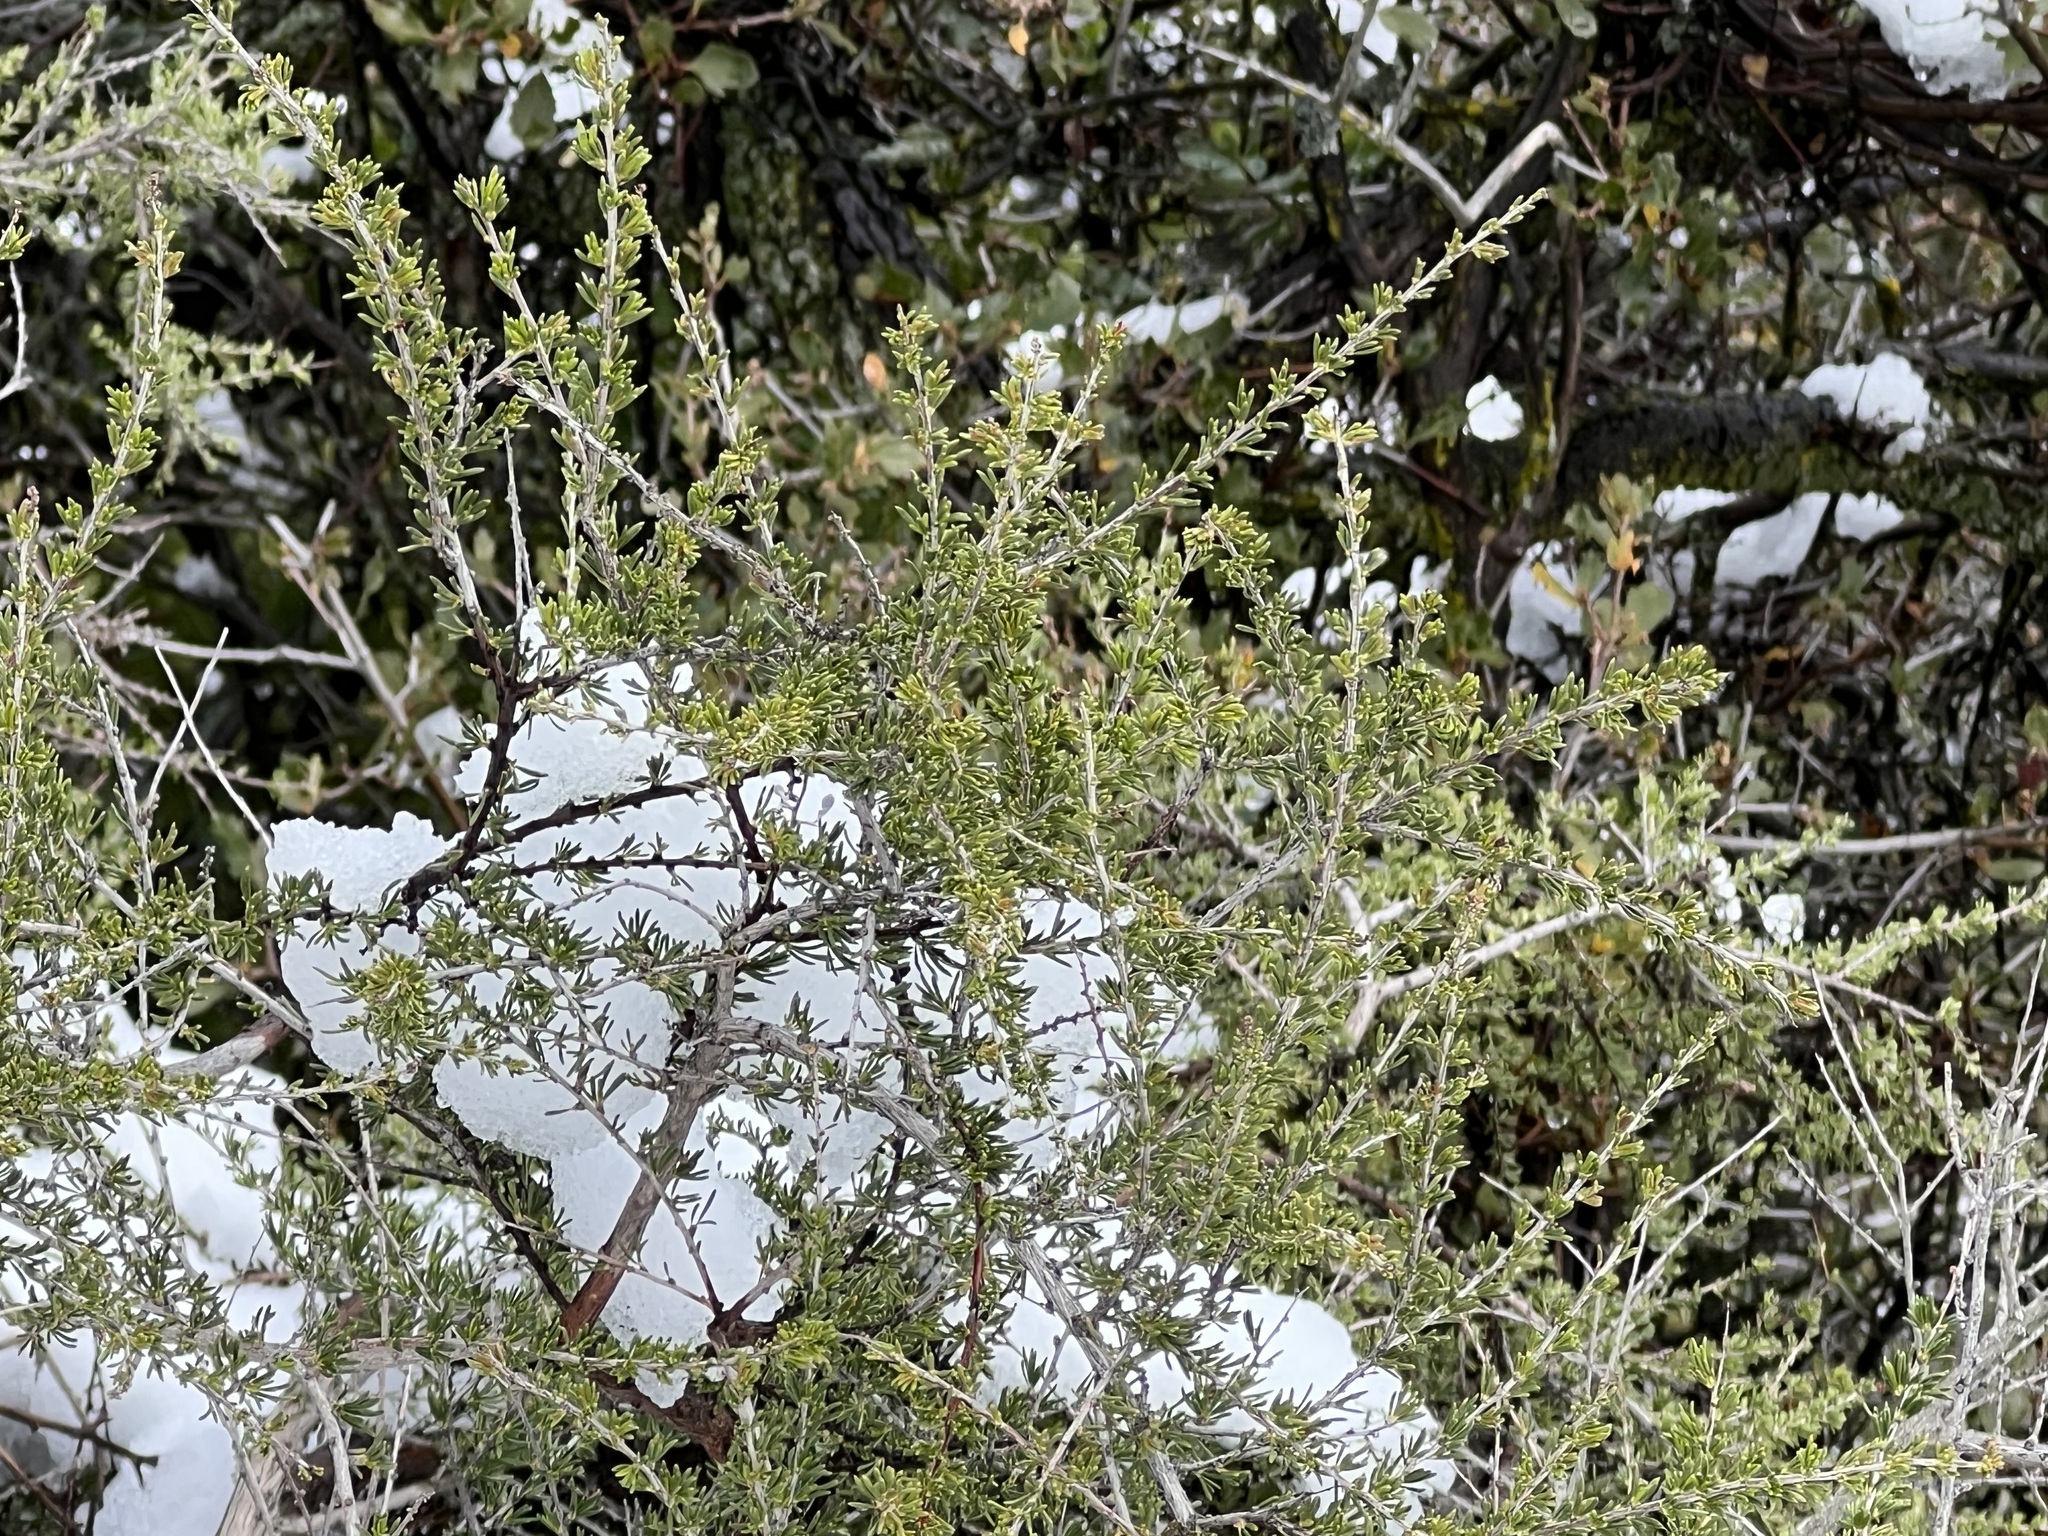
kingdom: Plantae
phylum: Tracheophyta
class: Magnoliopsida
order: Rosales
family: Rosaceae
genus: Adenostoma
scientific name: Adenostoma fasciculatum
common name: Chamise
